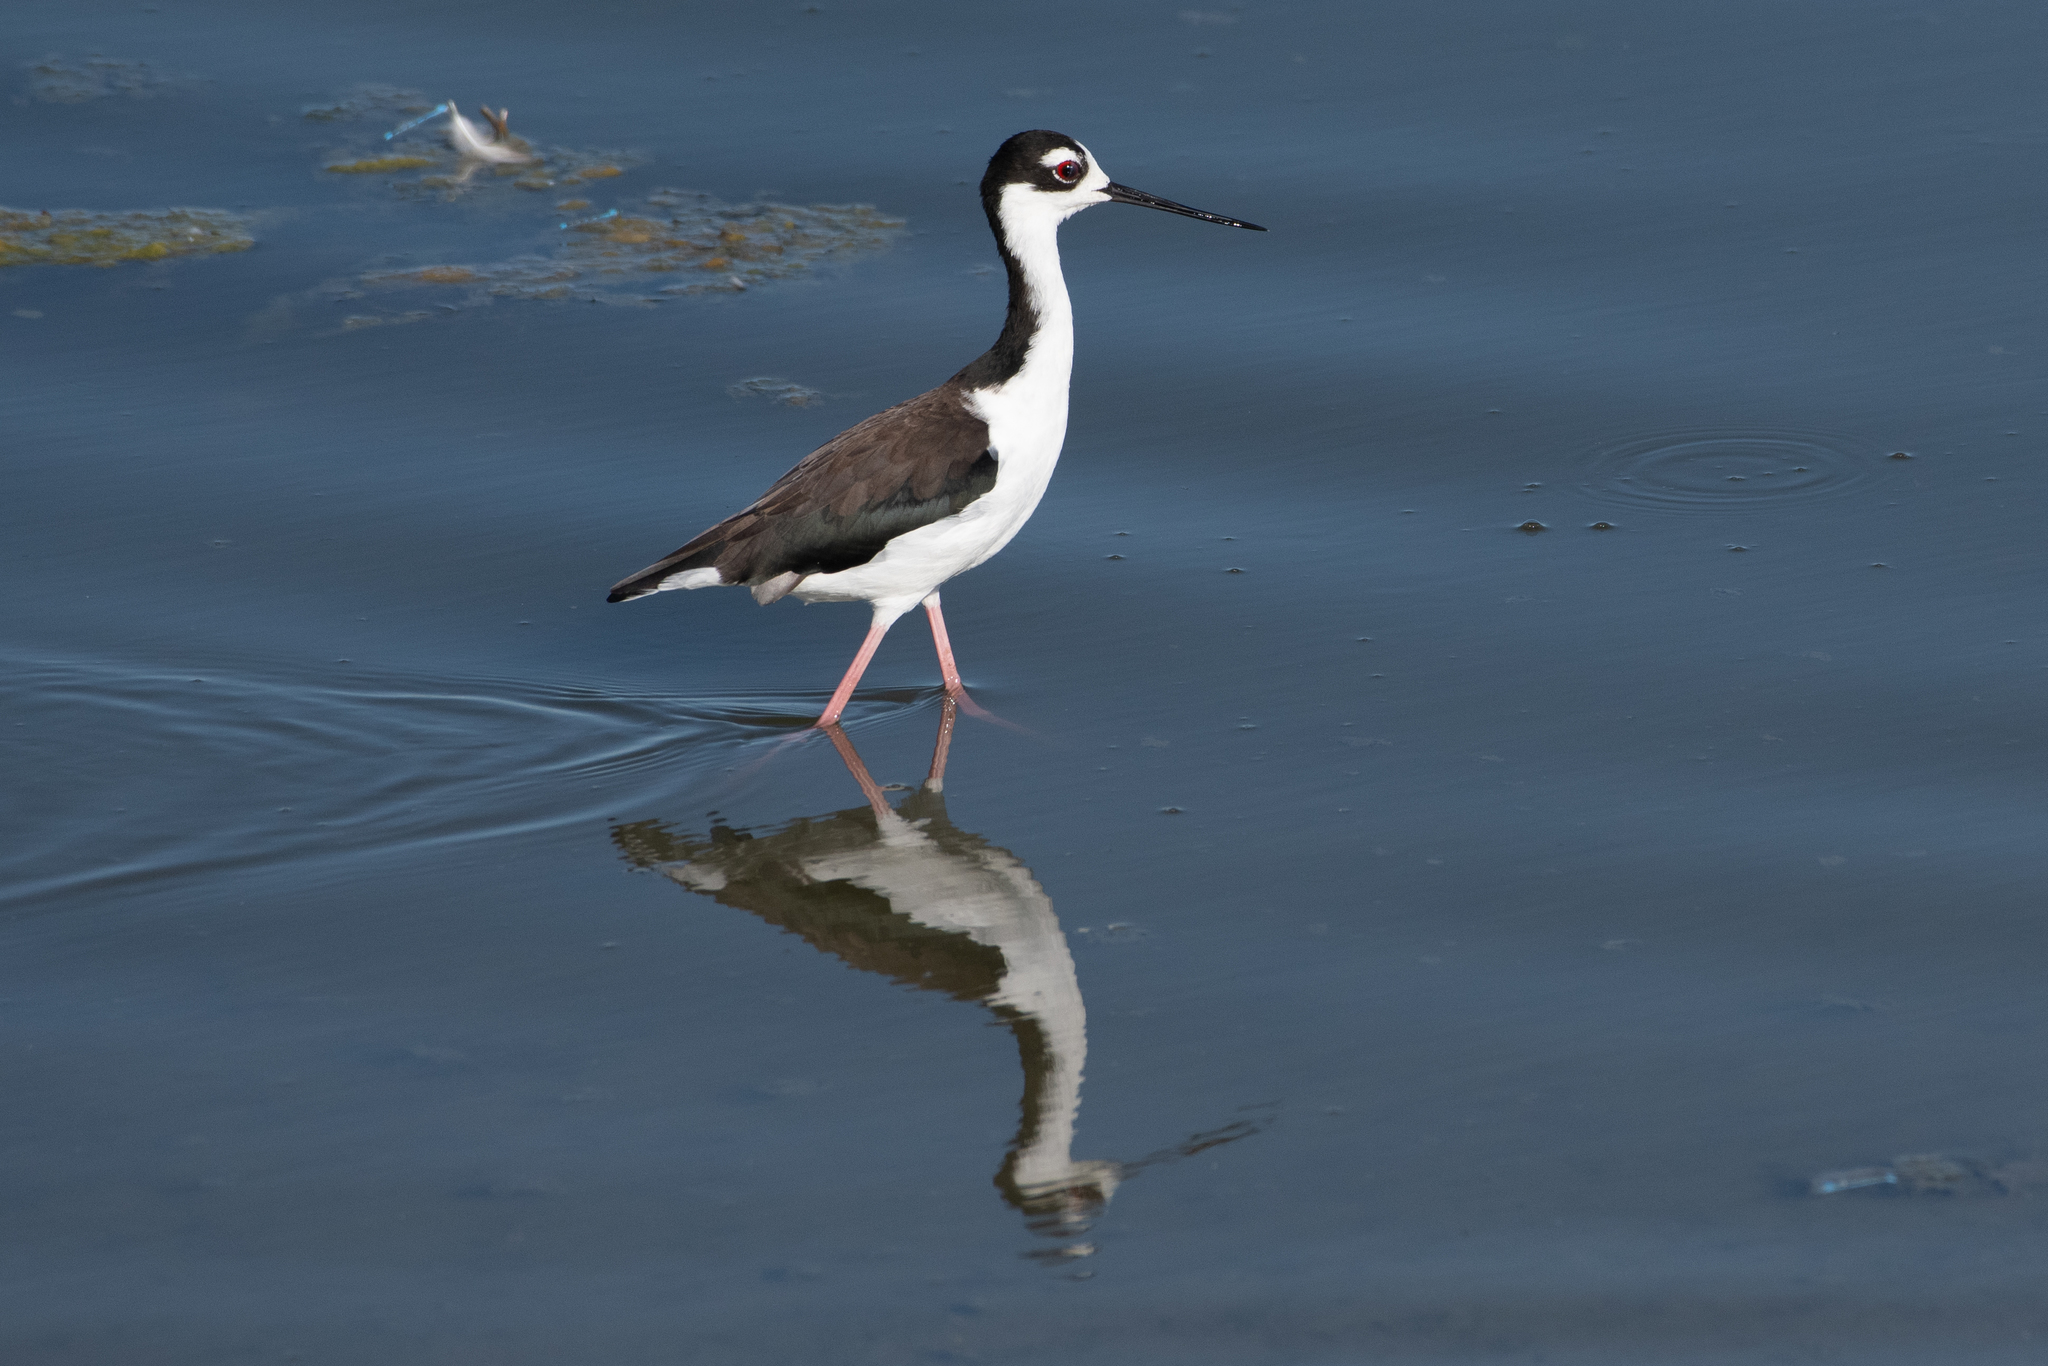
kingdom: Animalia
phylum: Chordata
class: Aves
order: Charadriiformes
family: Recurvirostridae
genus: Himantopus
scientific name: Himantopus mexicanus
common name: Black-necked stilt
